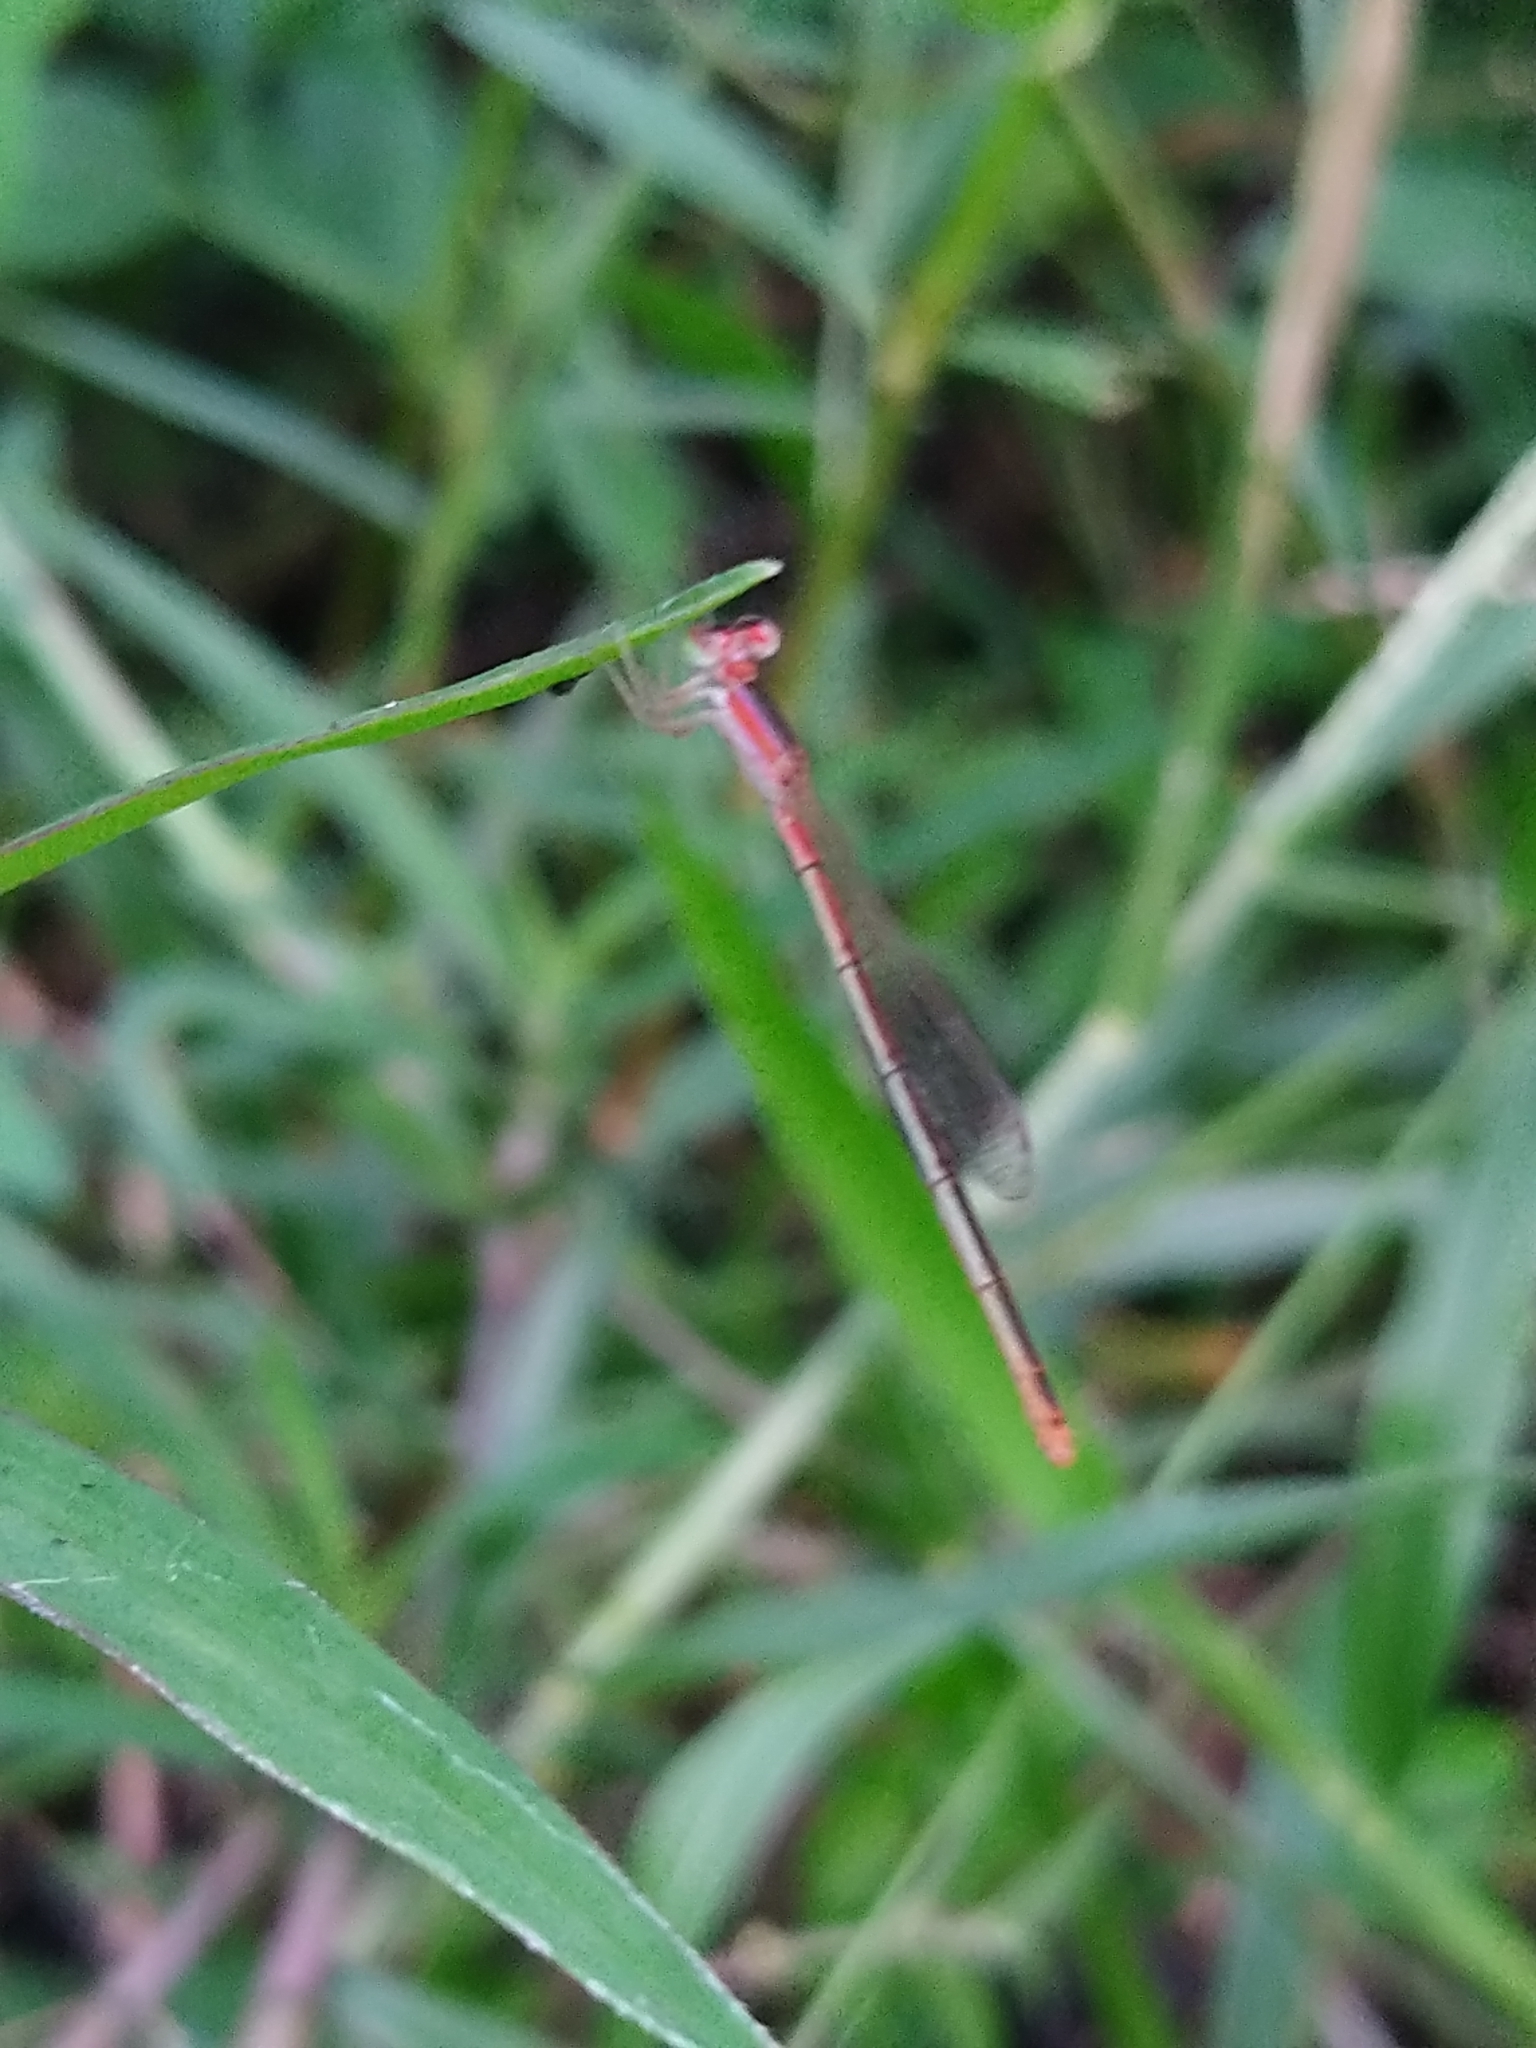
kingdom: Animalia
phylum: Arthropoda
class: Insecta
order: Odonata
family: Coenagrionidae
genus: Agriocnemis
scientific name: Agriocnemis pygmaea
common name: Pygmy wisp
